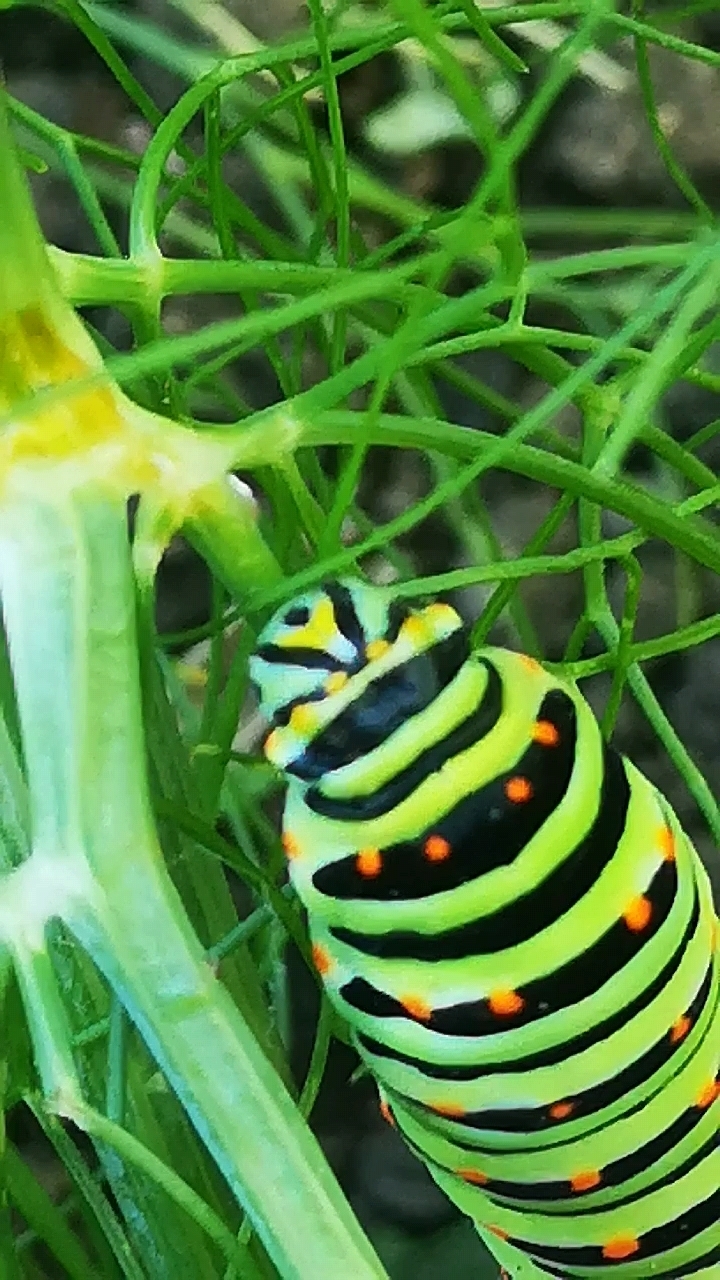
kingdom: Animalia
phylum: Arthropoda
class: Insecta
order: Lepidoptera
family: Papilionidae
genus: Papilio
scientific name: Papilio machaon
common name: Swallowtail
